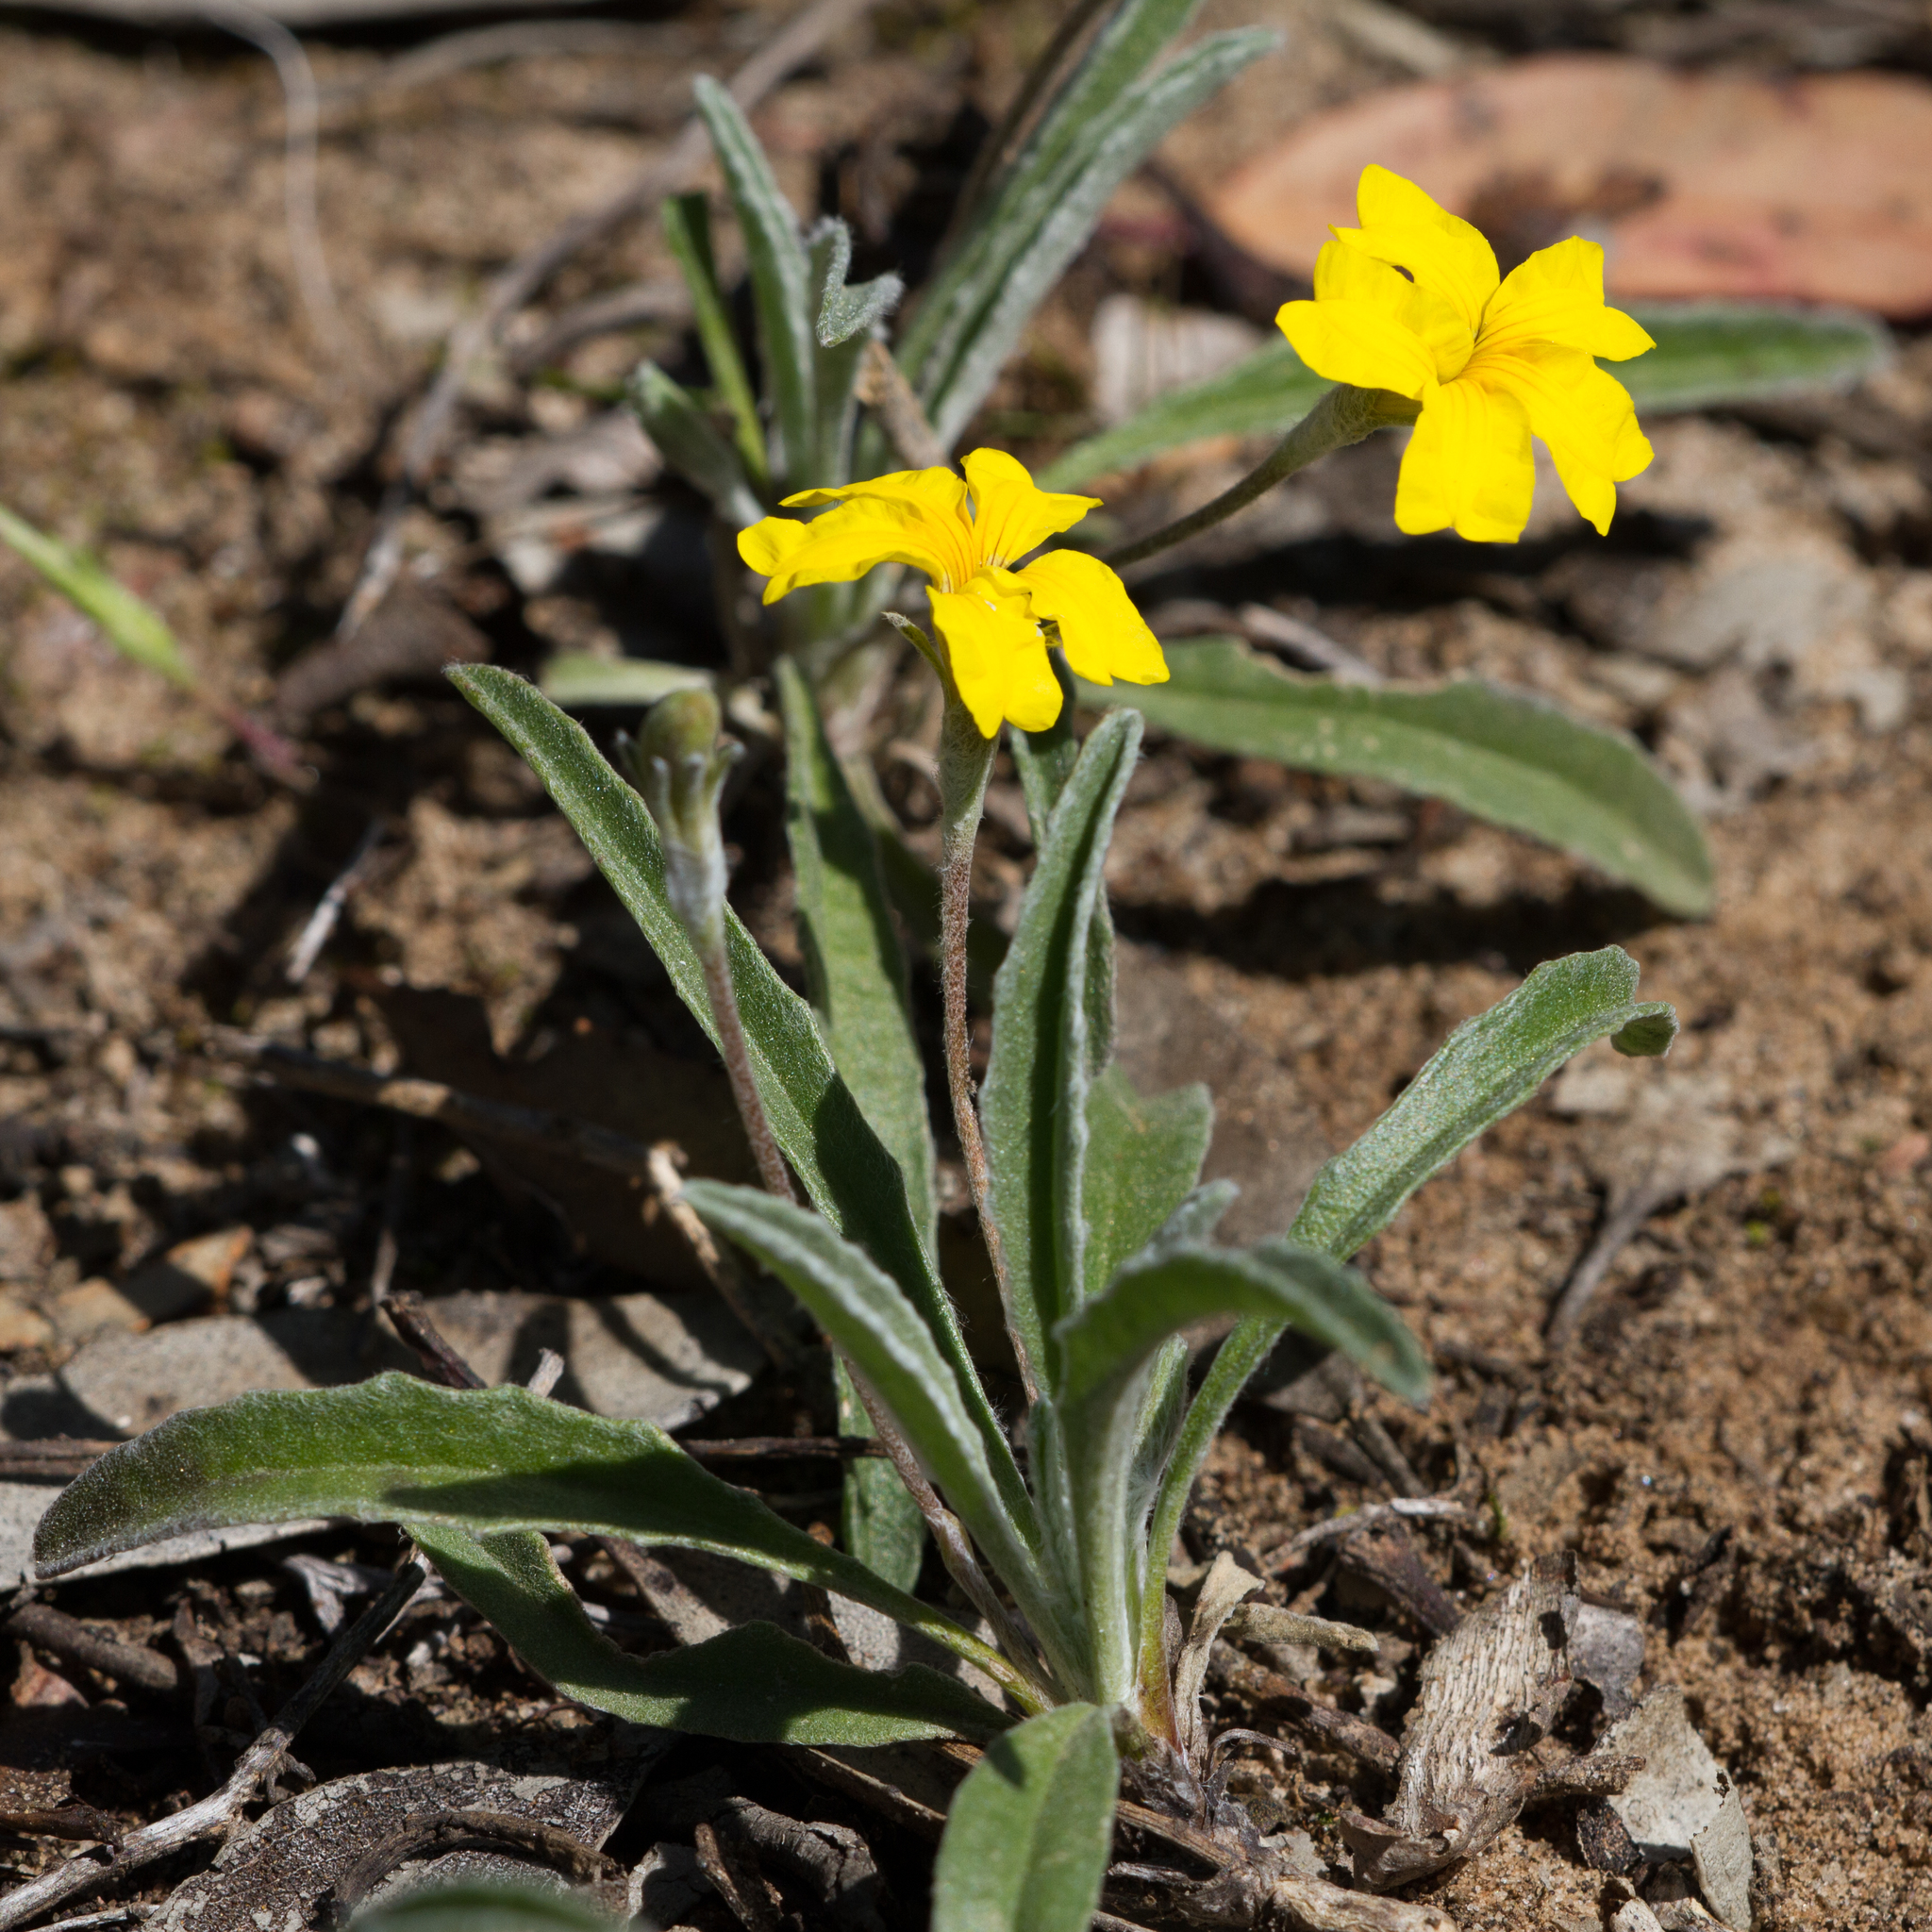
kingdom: Plantae
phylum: Tracheophyta
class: Magnoliopsida
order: Asterales
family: Goodeniaceae
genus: Goodenia
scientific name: Goodenia willisiana
